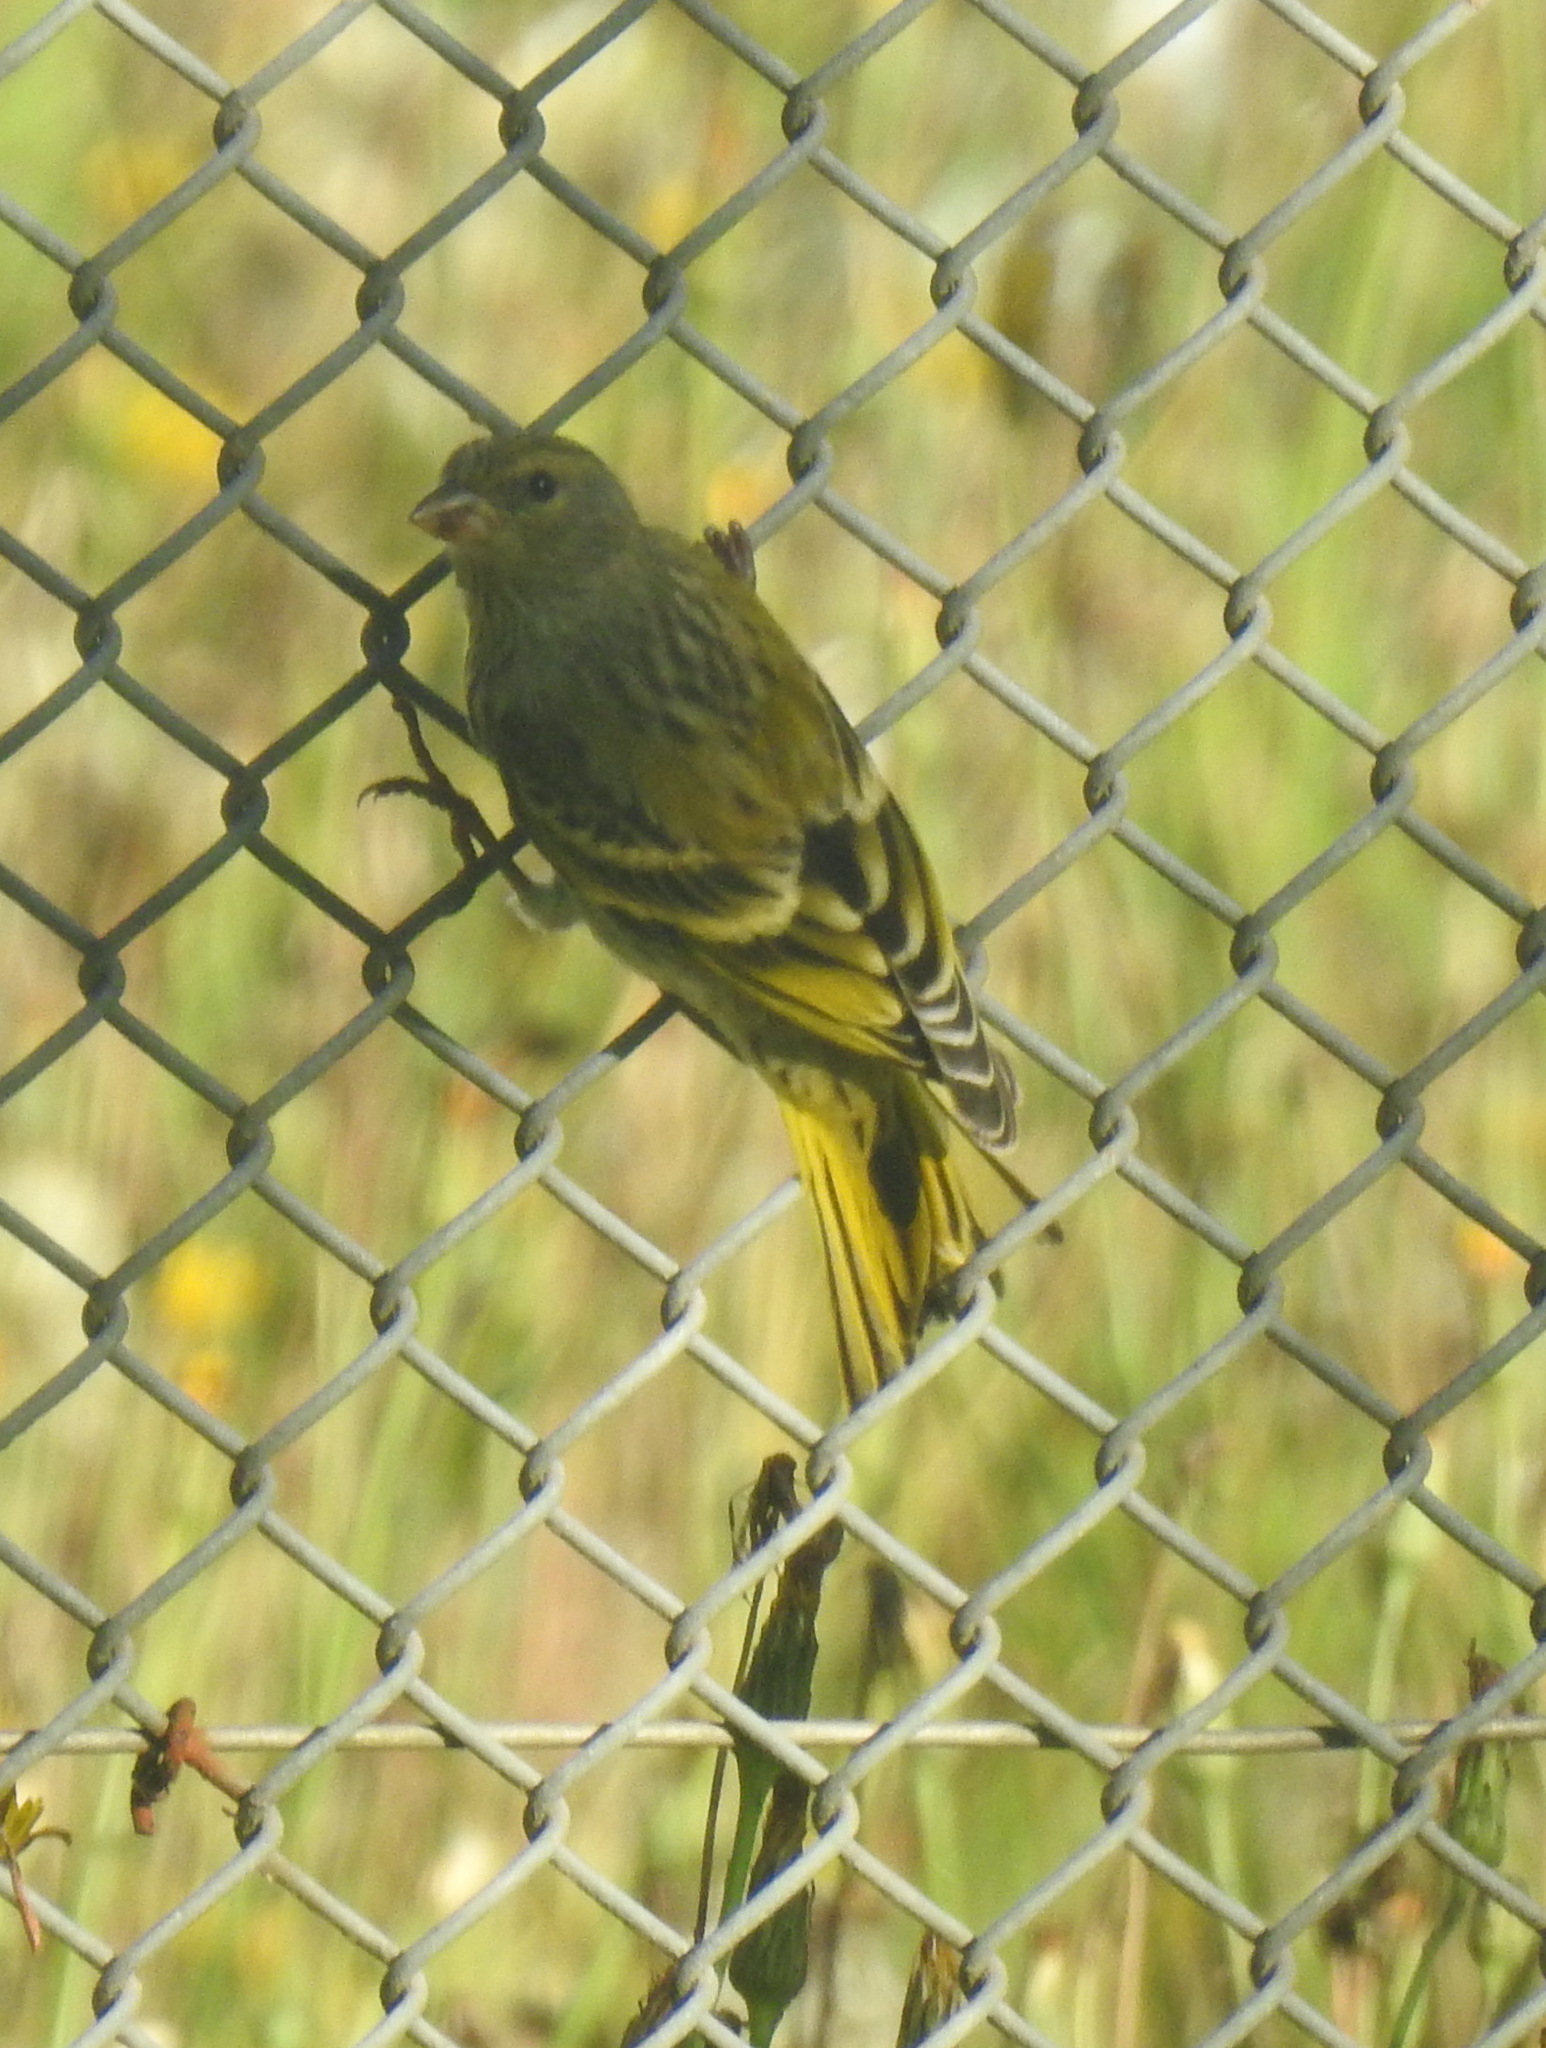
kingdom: Animalia
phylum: Chordata
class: Aves
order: Passeriformes
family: Fringillidae
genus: Serinus
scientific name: Serinus canicollis
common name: Cape canary
